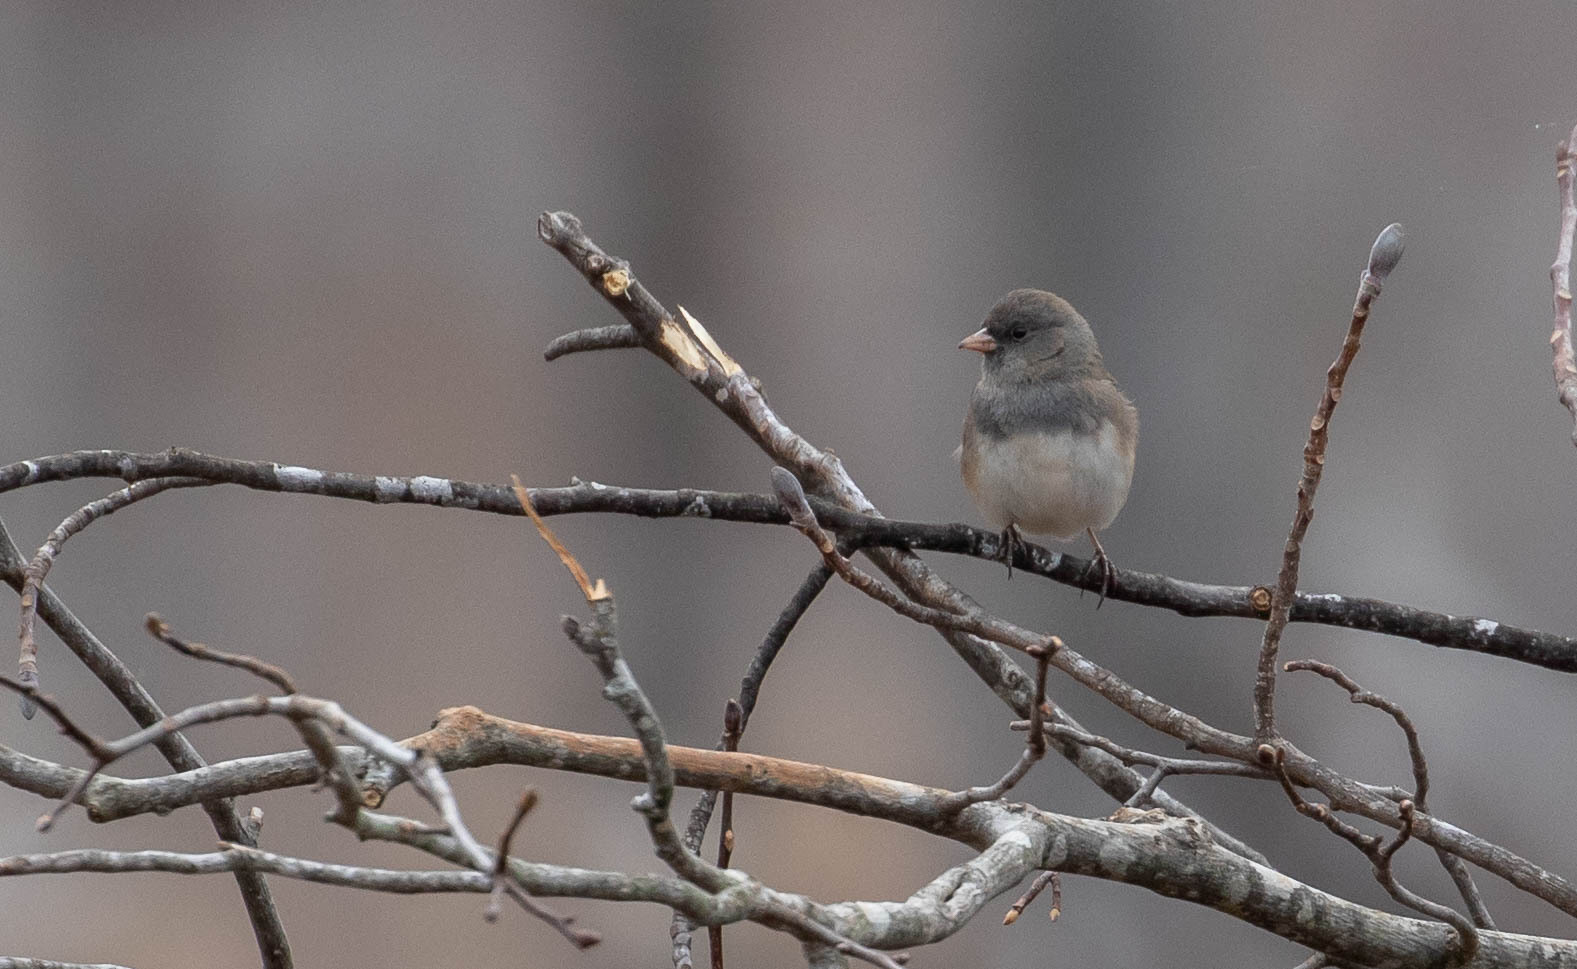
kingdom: Animalia
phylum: Chordata
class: Aves
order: Passeriformes
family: Passerellidae
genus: Junco
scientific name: Junco hyemalis
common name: Dark-eyed junco
